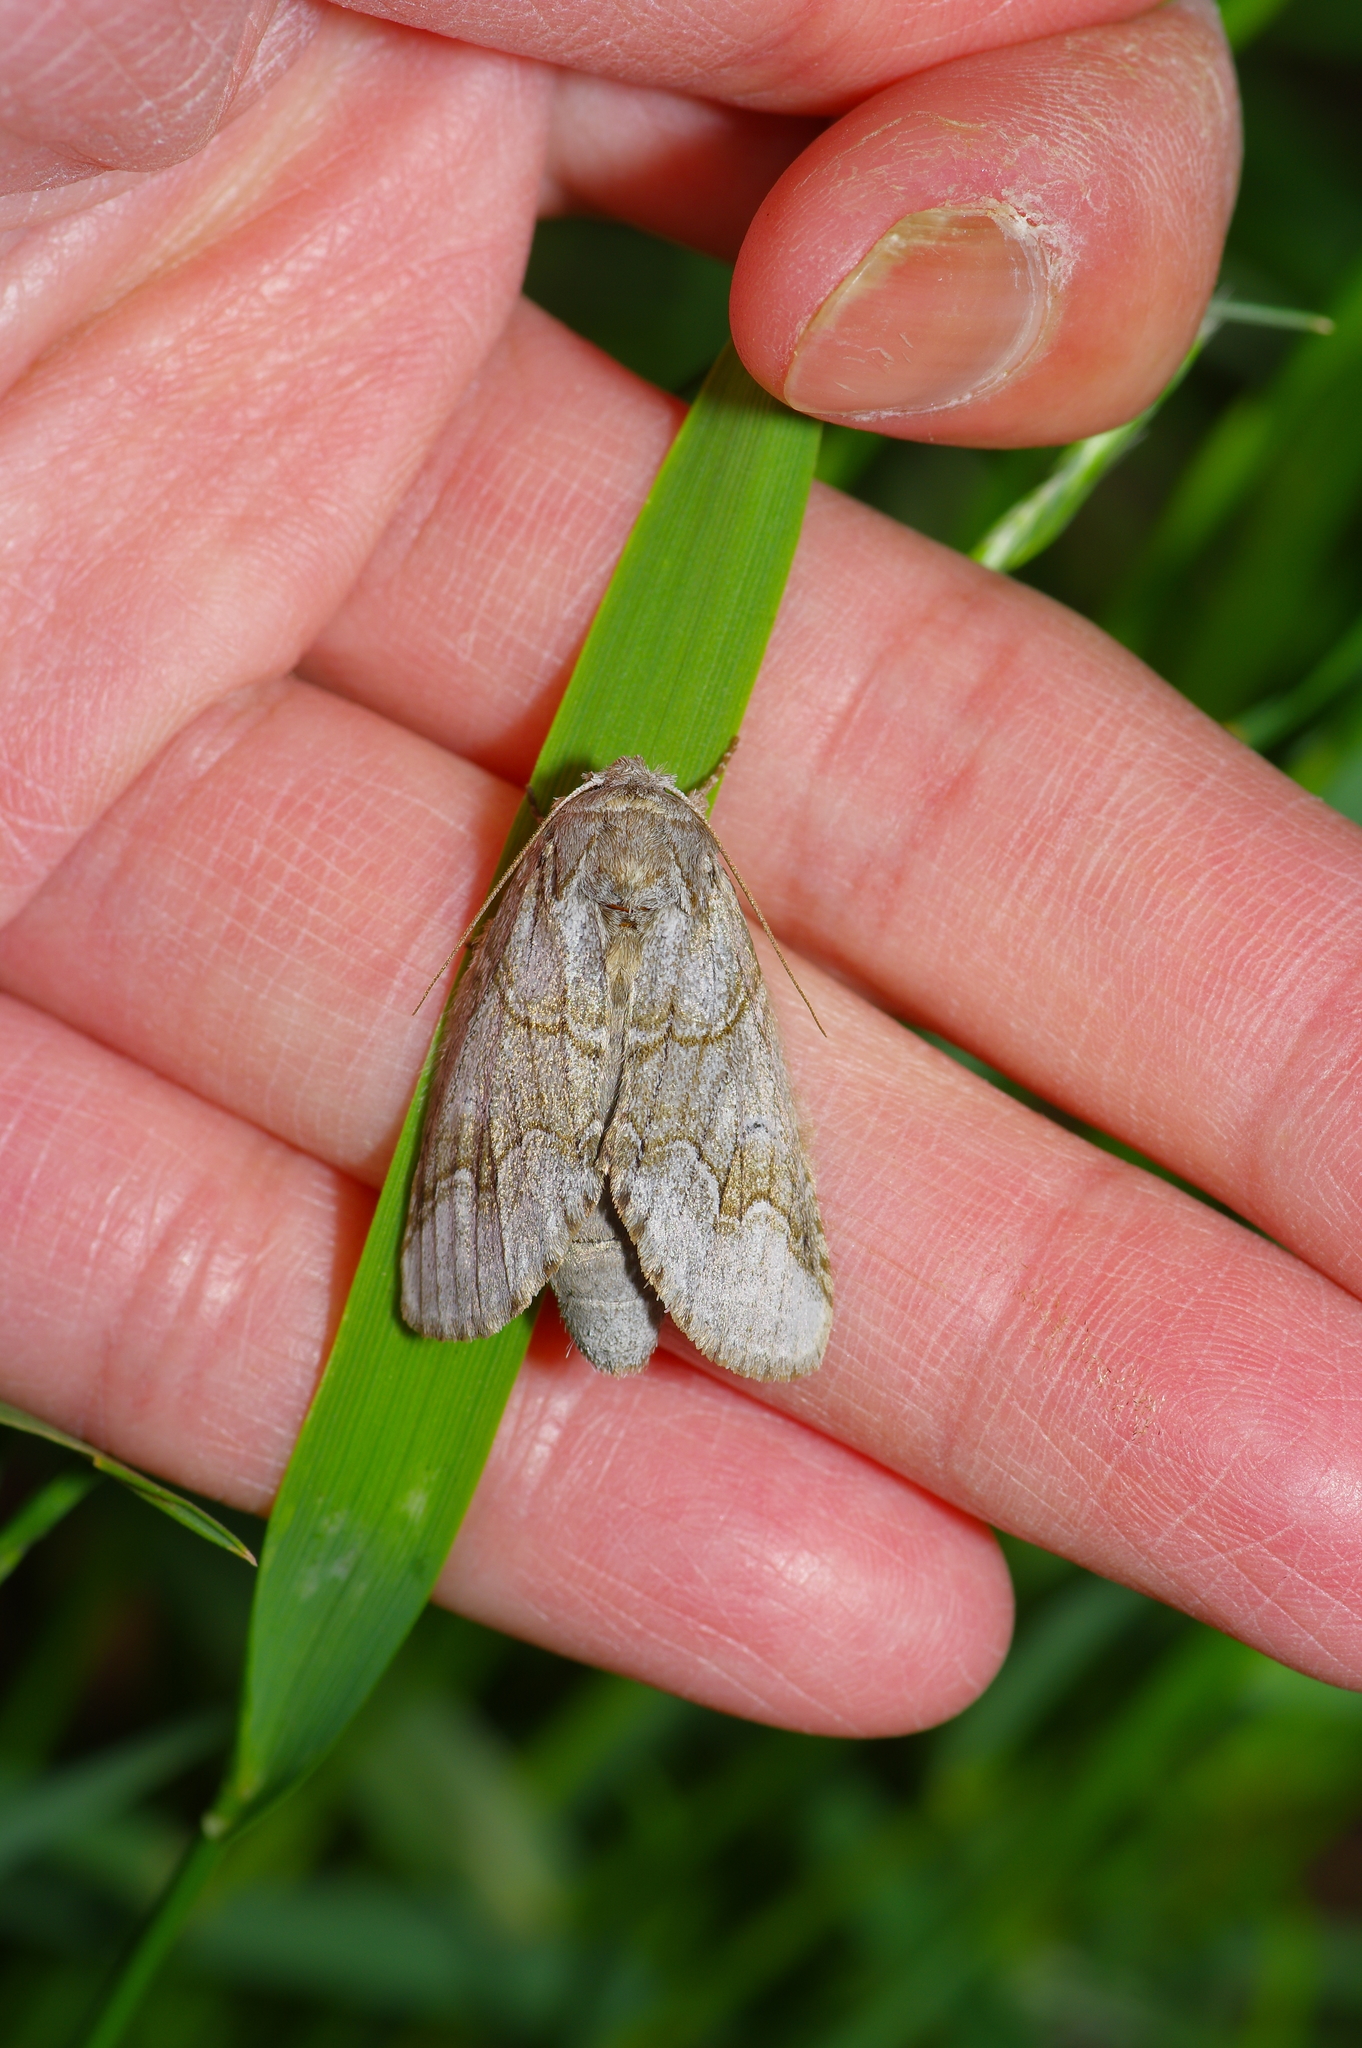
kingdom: Animalia
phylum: Arthropoda
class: Insecta
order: Lepidoptera
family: Notodontidae
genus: Lochmaeus
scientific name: Lochmaeus bilineata
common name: Double-lined prominent
